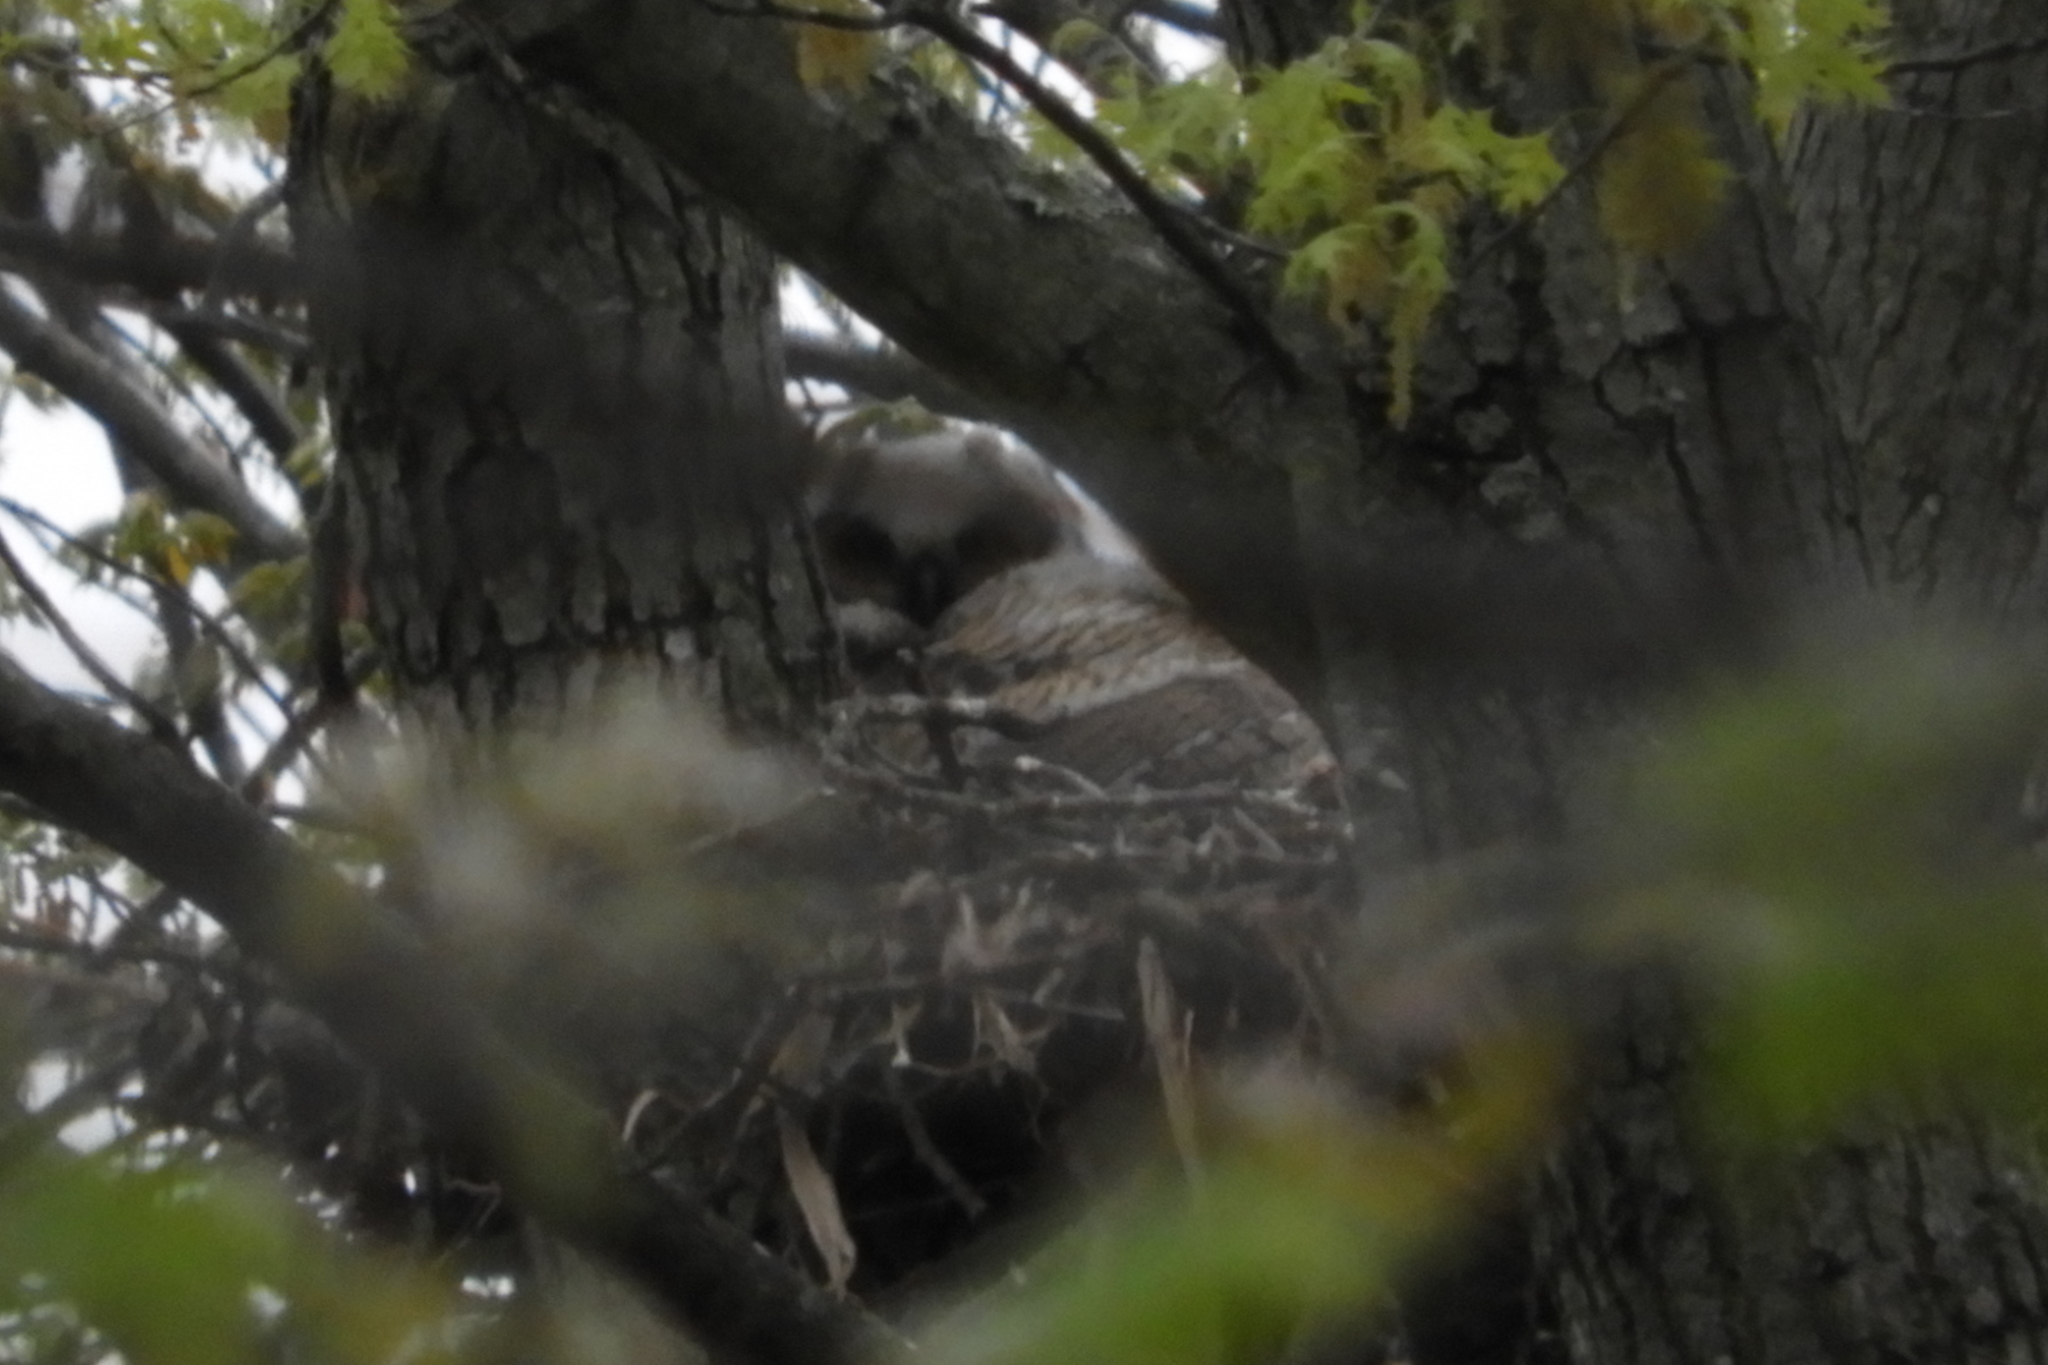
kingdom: Animalia
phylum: Chordata
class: Aves
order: Strigiformes
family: Strigidae
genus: Bubo
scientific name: Bubo virginianus
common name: Great horned owl
